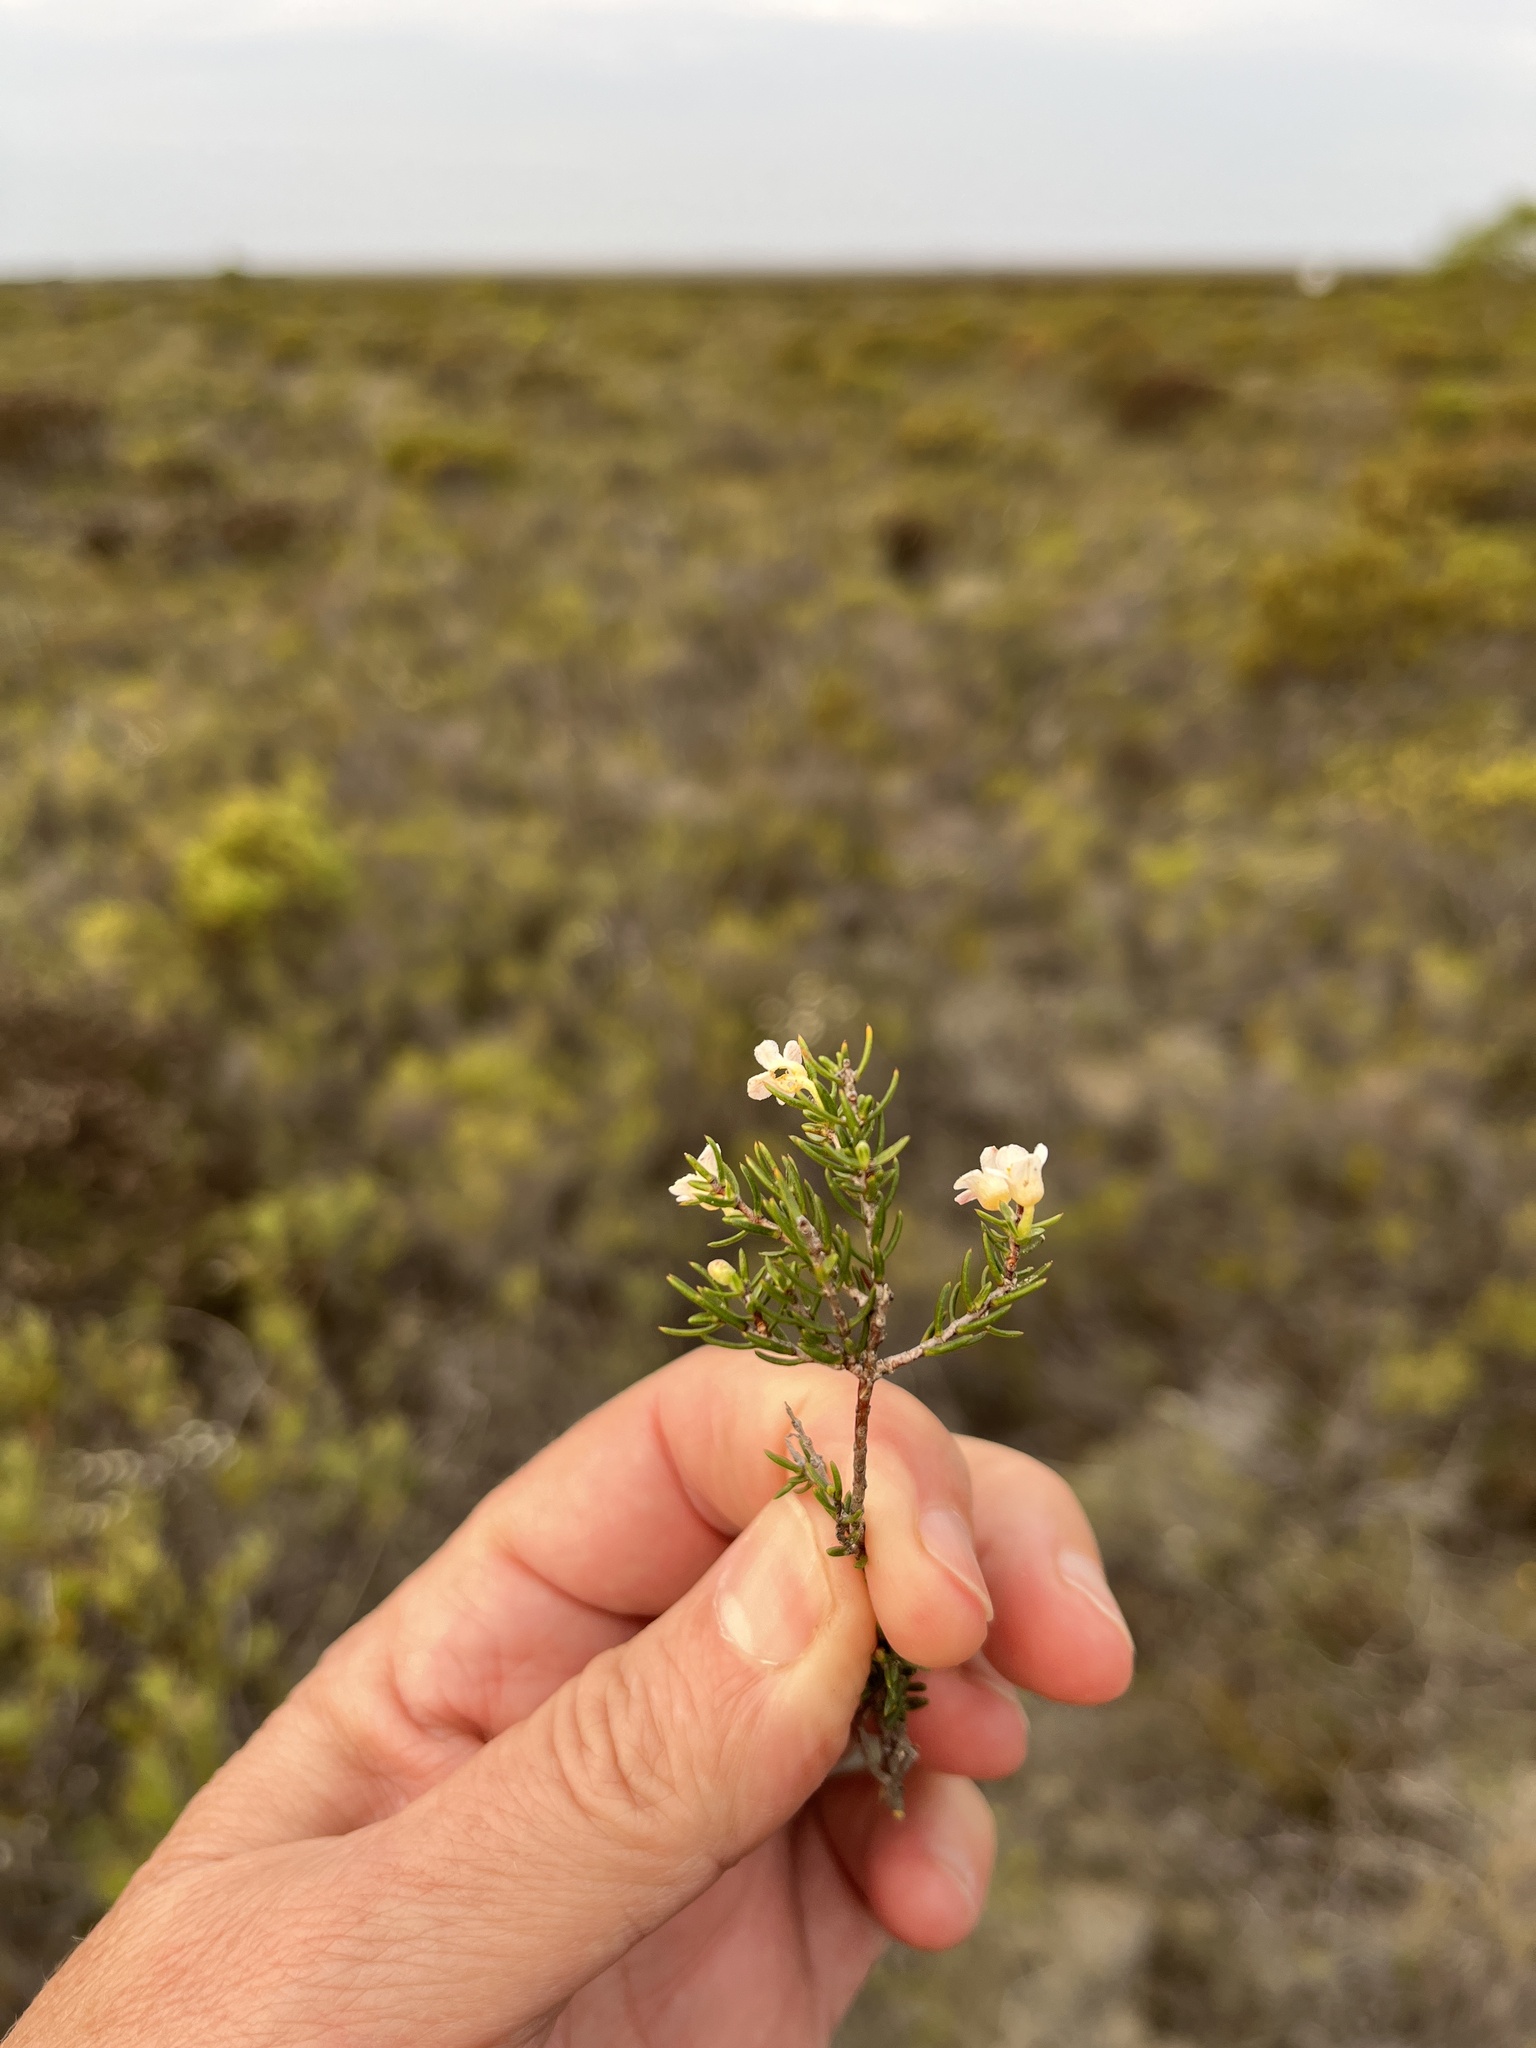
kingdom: Plantae
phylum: Tracheophyta
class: Magnoliopsida
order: Malvales
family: Thymelaeaceae
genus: Lachnaea
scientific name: Lachnaea filicaulis
